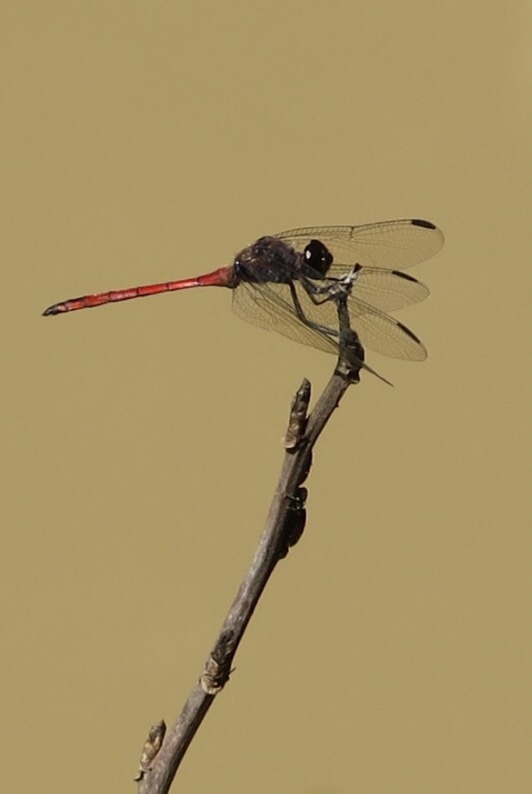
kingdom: Animalia
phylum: Arthropoda
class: Insecta
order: Odonata
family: Libellulidae
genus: Orthemis
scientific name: Orthemis ambinigra
